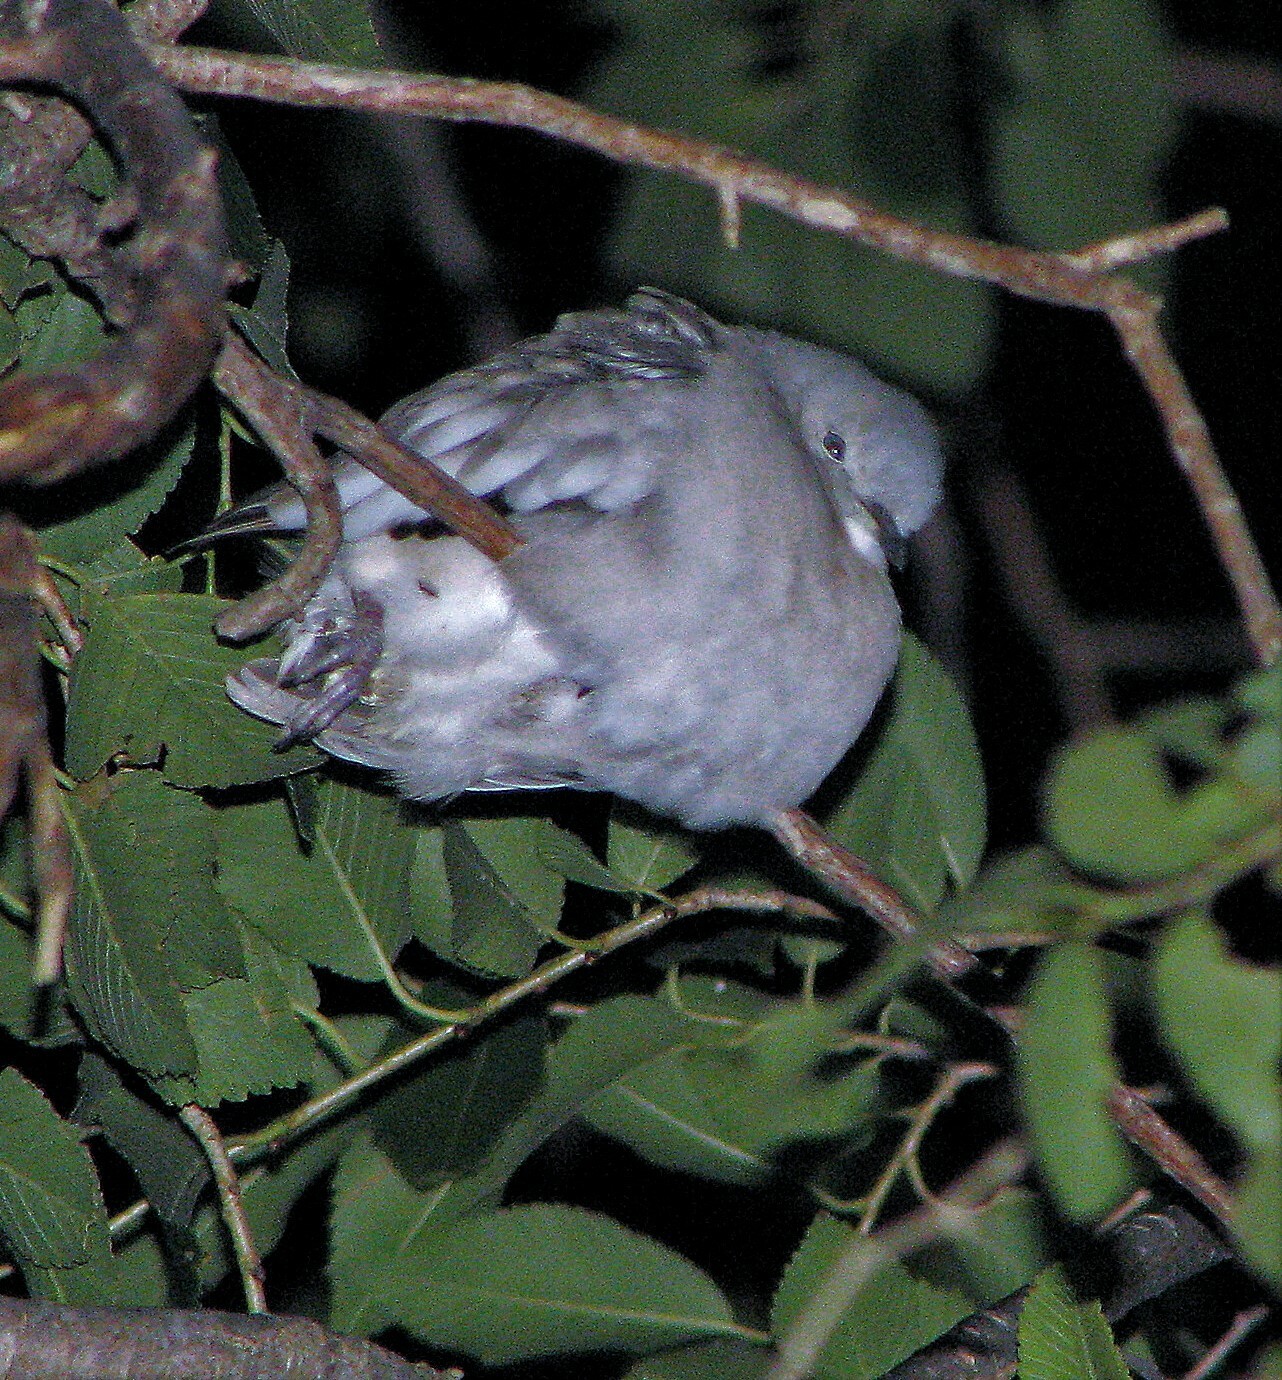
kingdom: Animalia
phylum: Chordata
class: Aves
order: Columbiformes
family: Columbidae
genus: Columbina
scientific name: Columbina picui
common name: Picui ground dove
